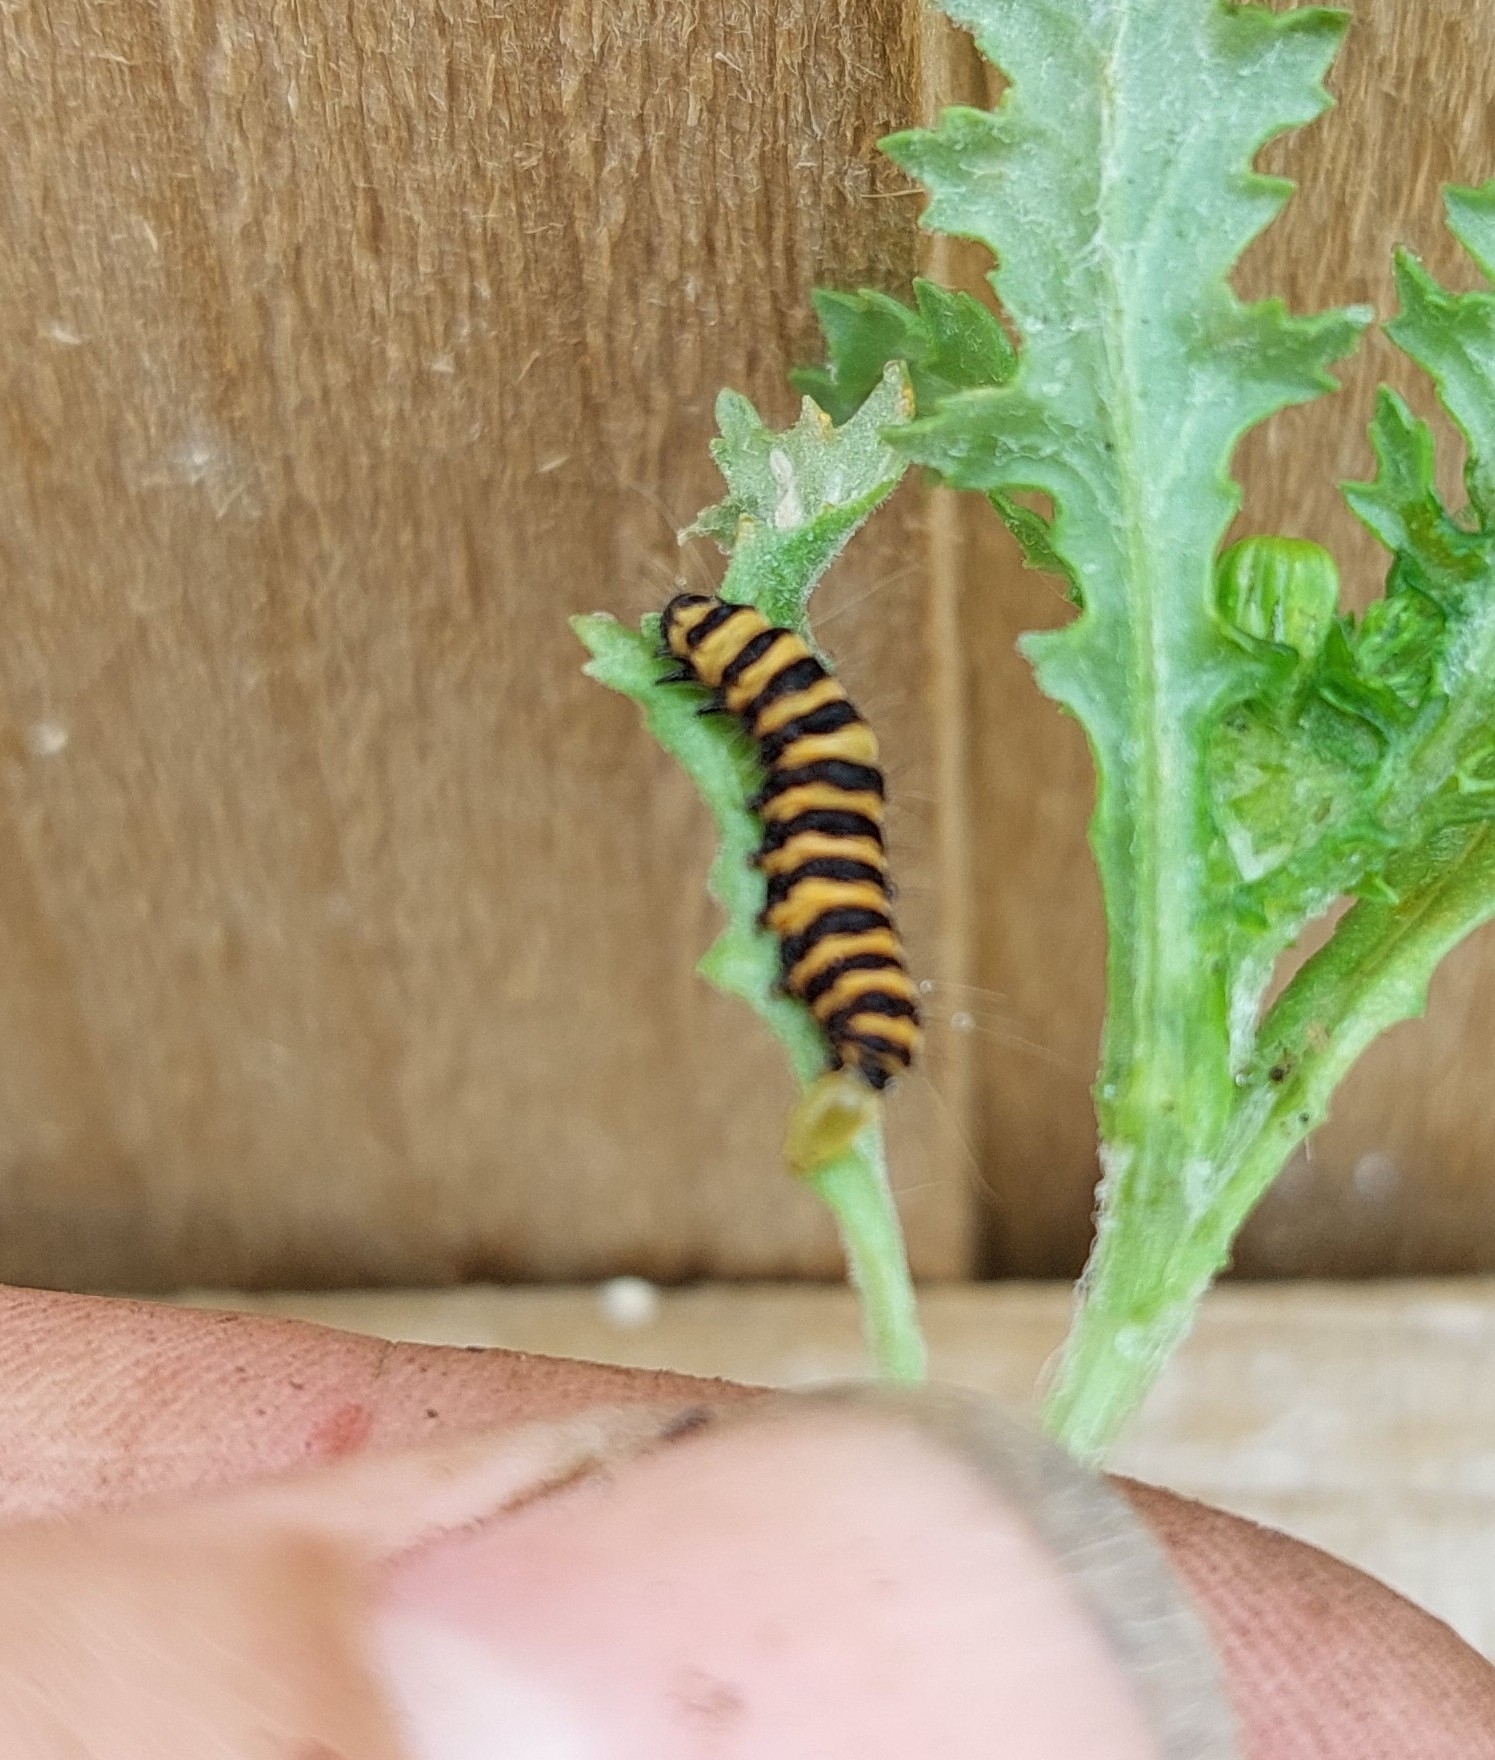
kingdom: Animalia
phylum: Arthropoda
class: Insecta
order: Lepidoptera
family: Erebidae
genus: Tyria
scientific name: Tyria jacobaeae
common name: Cinnabar
